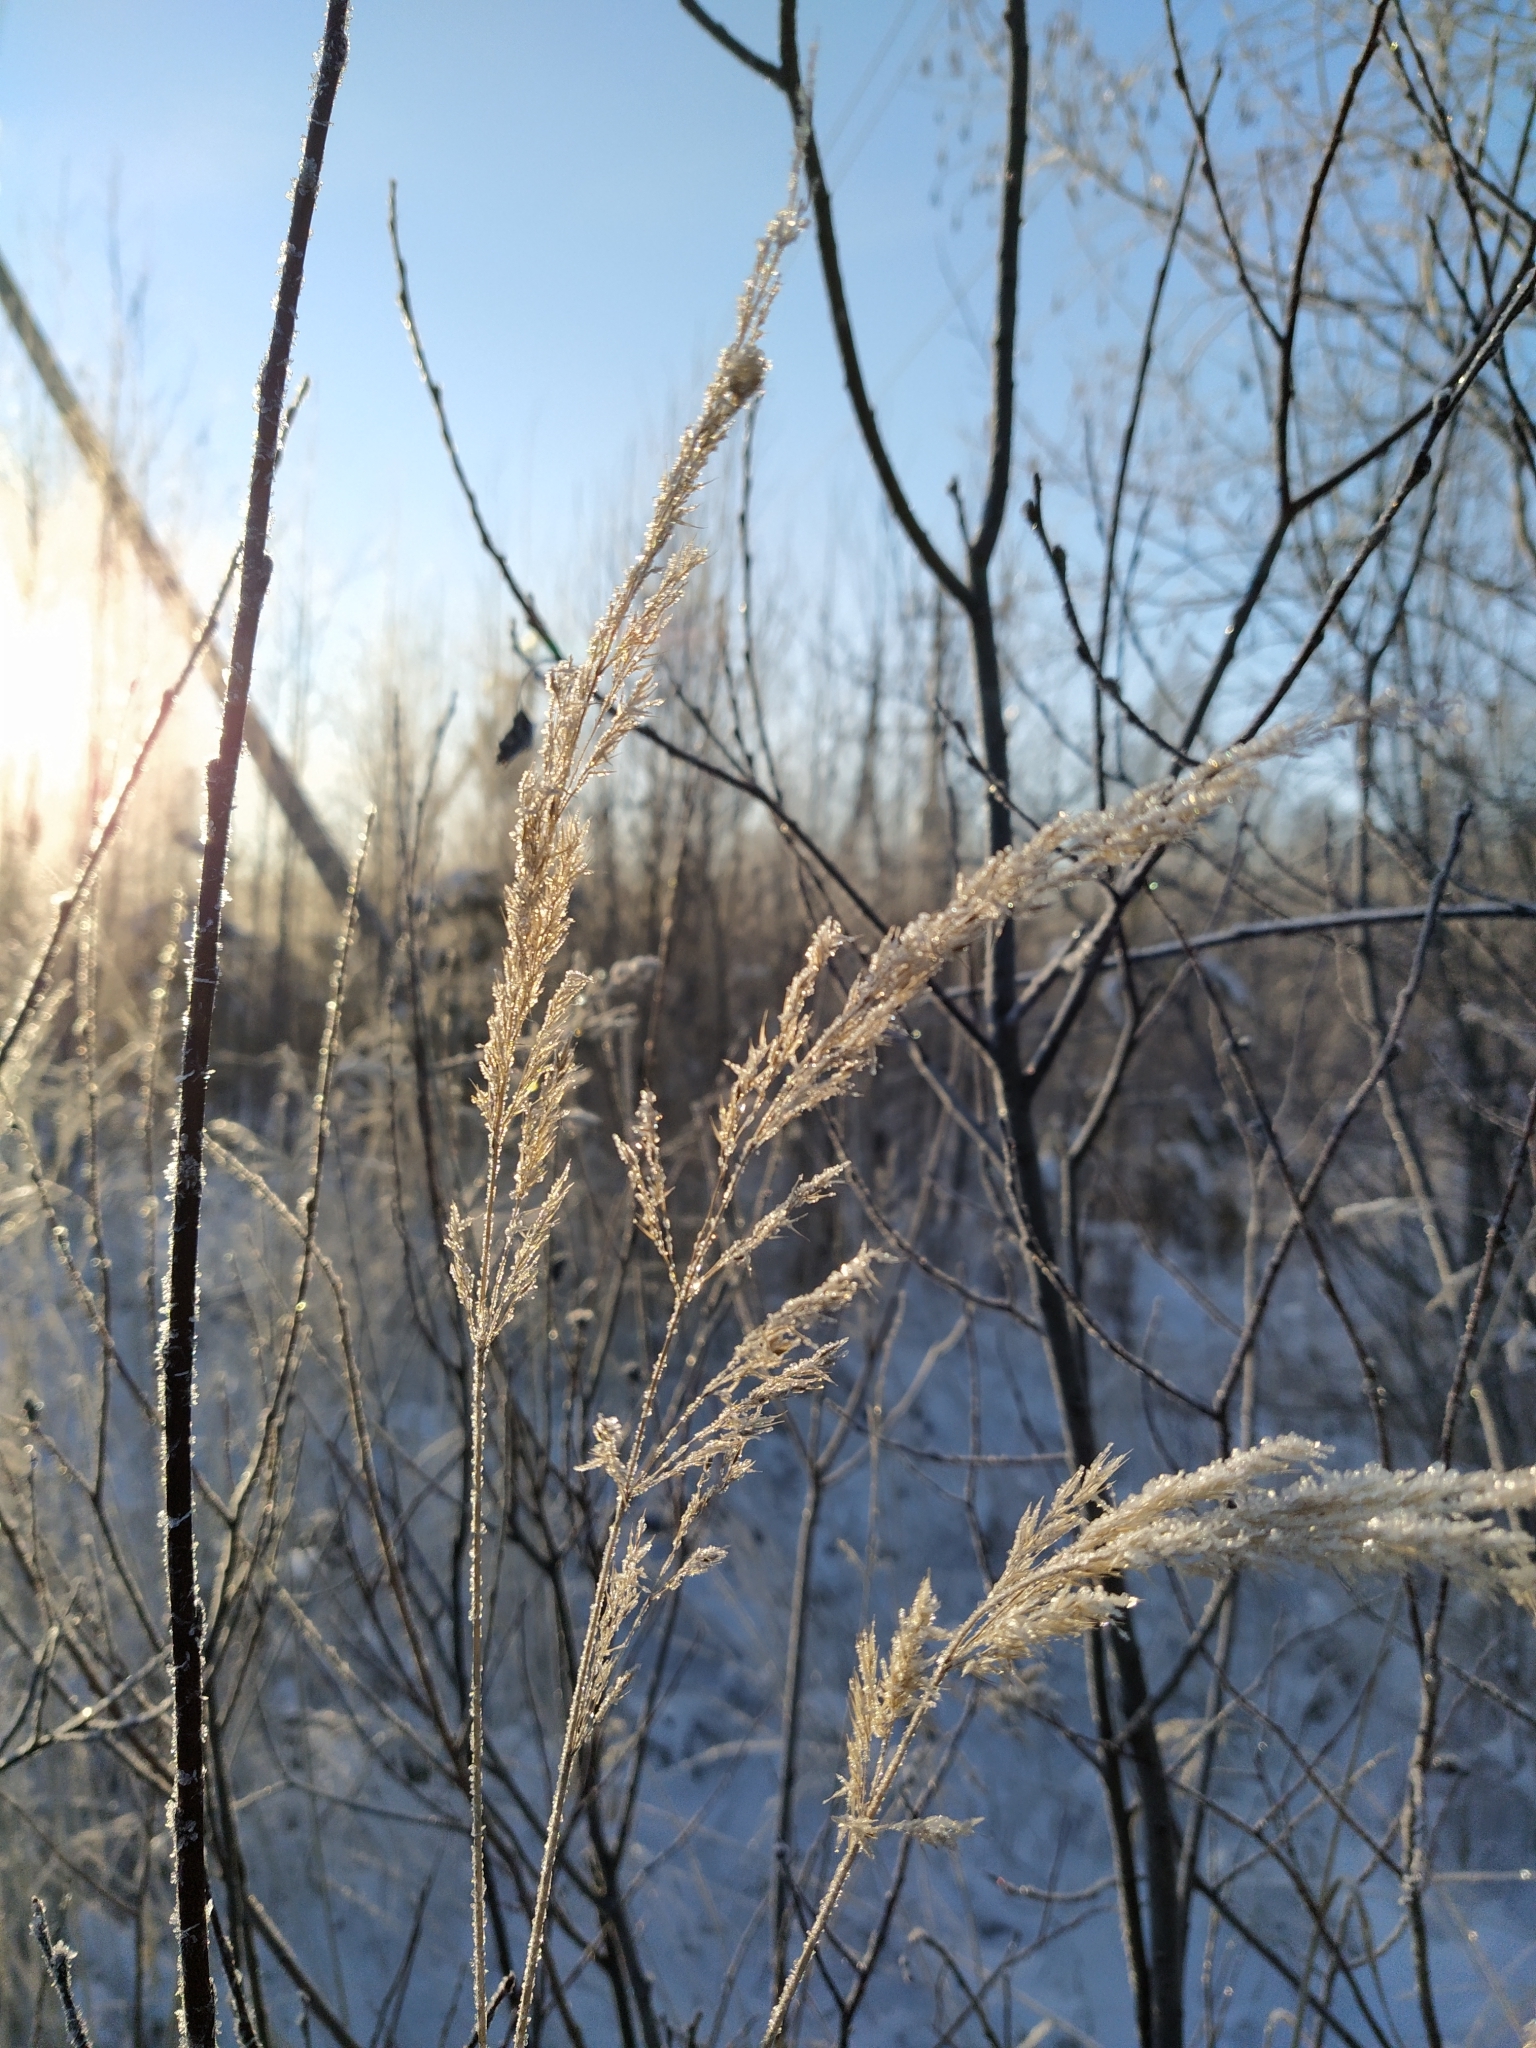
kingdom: Plantae
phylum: Tracheophyta
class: Liliopsida
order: Poales
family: Poaceae
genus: Calamagrostis
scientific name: Calamagrostis epigejos
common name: Wood small-reed
